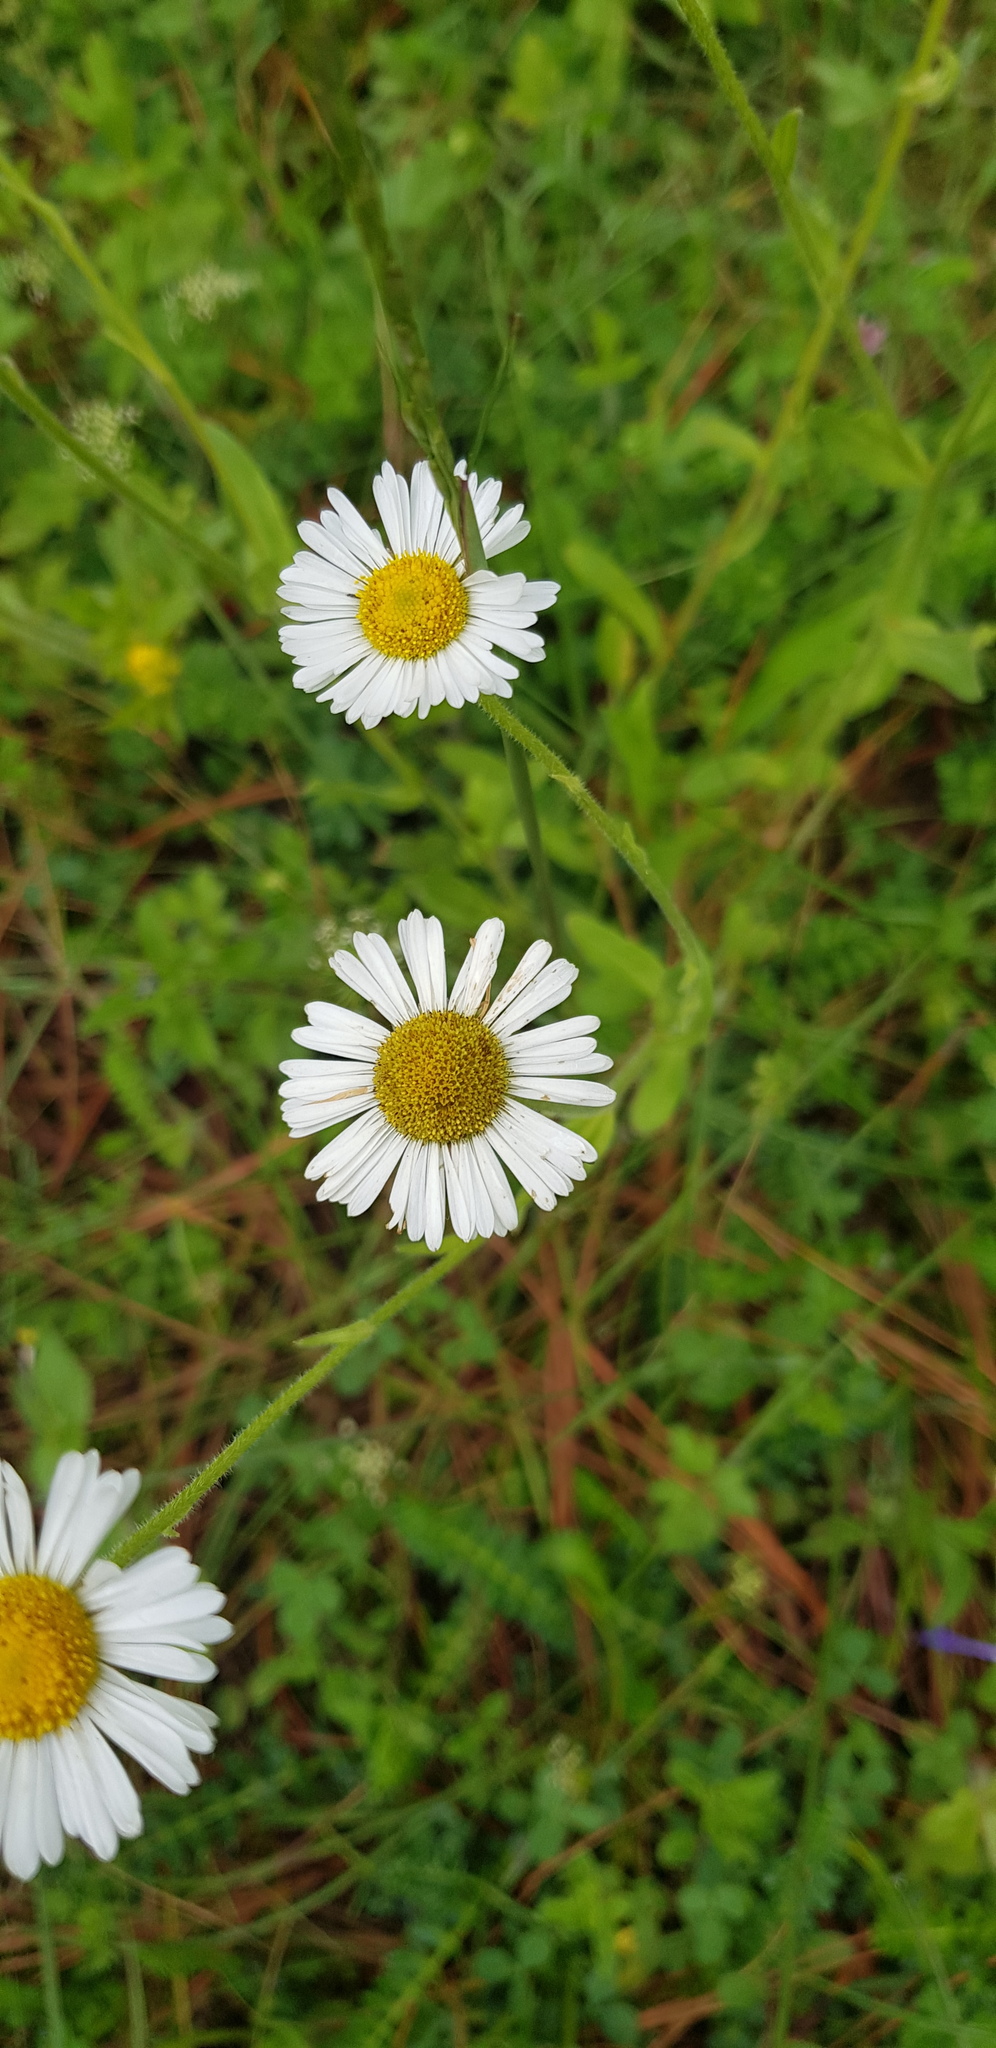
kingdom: Plantae
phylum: Tracheophyta
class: Magnoliopsida
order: Asterales
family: Asteraceae
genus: Erigeron
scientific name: Erigeron galeottii
